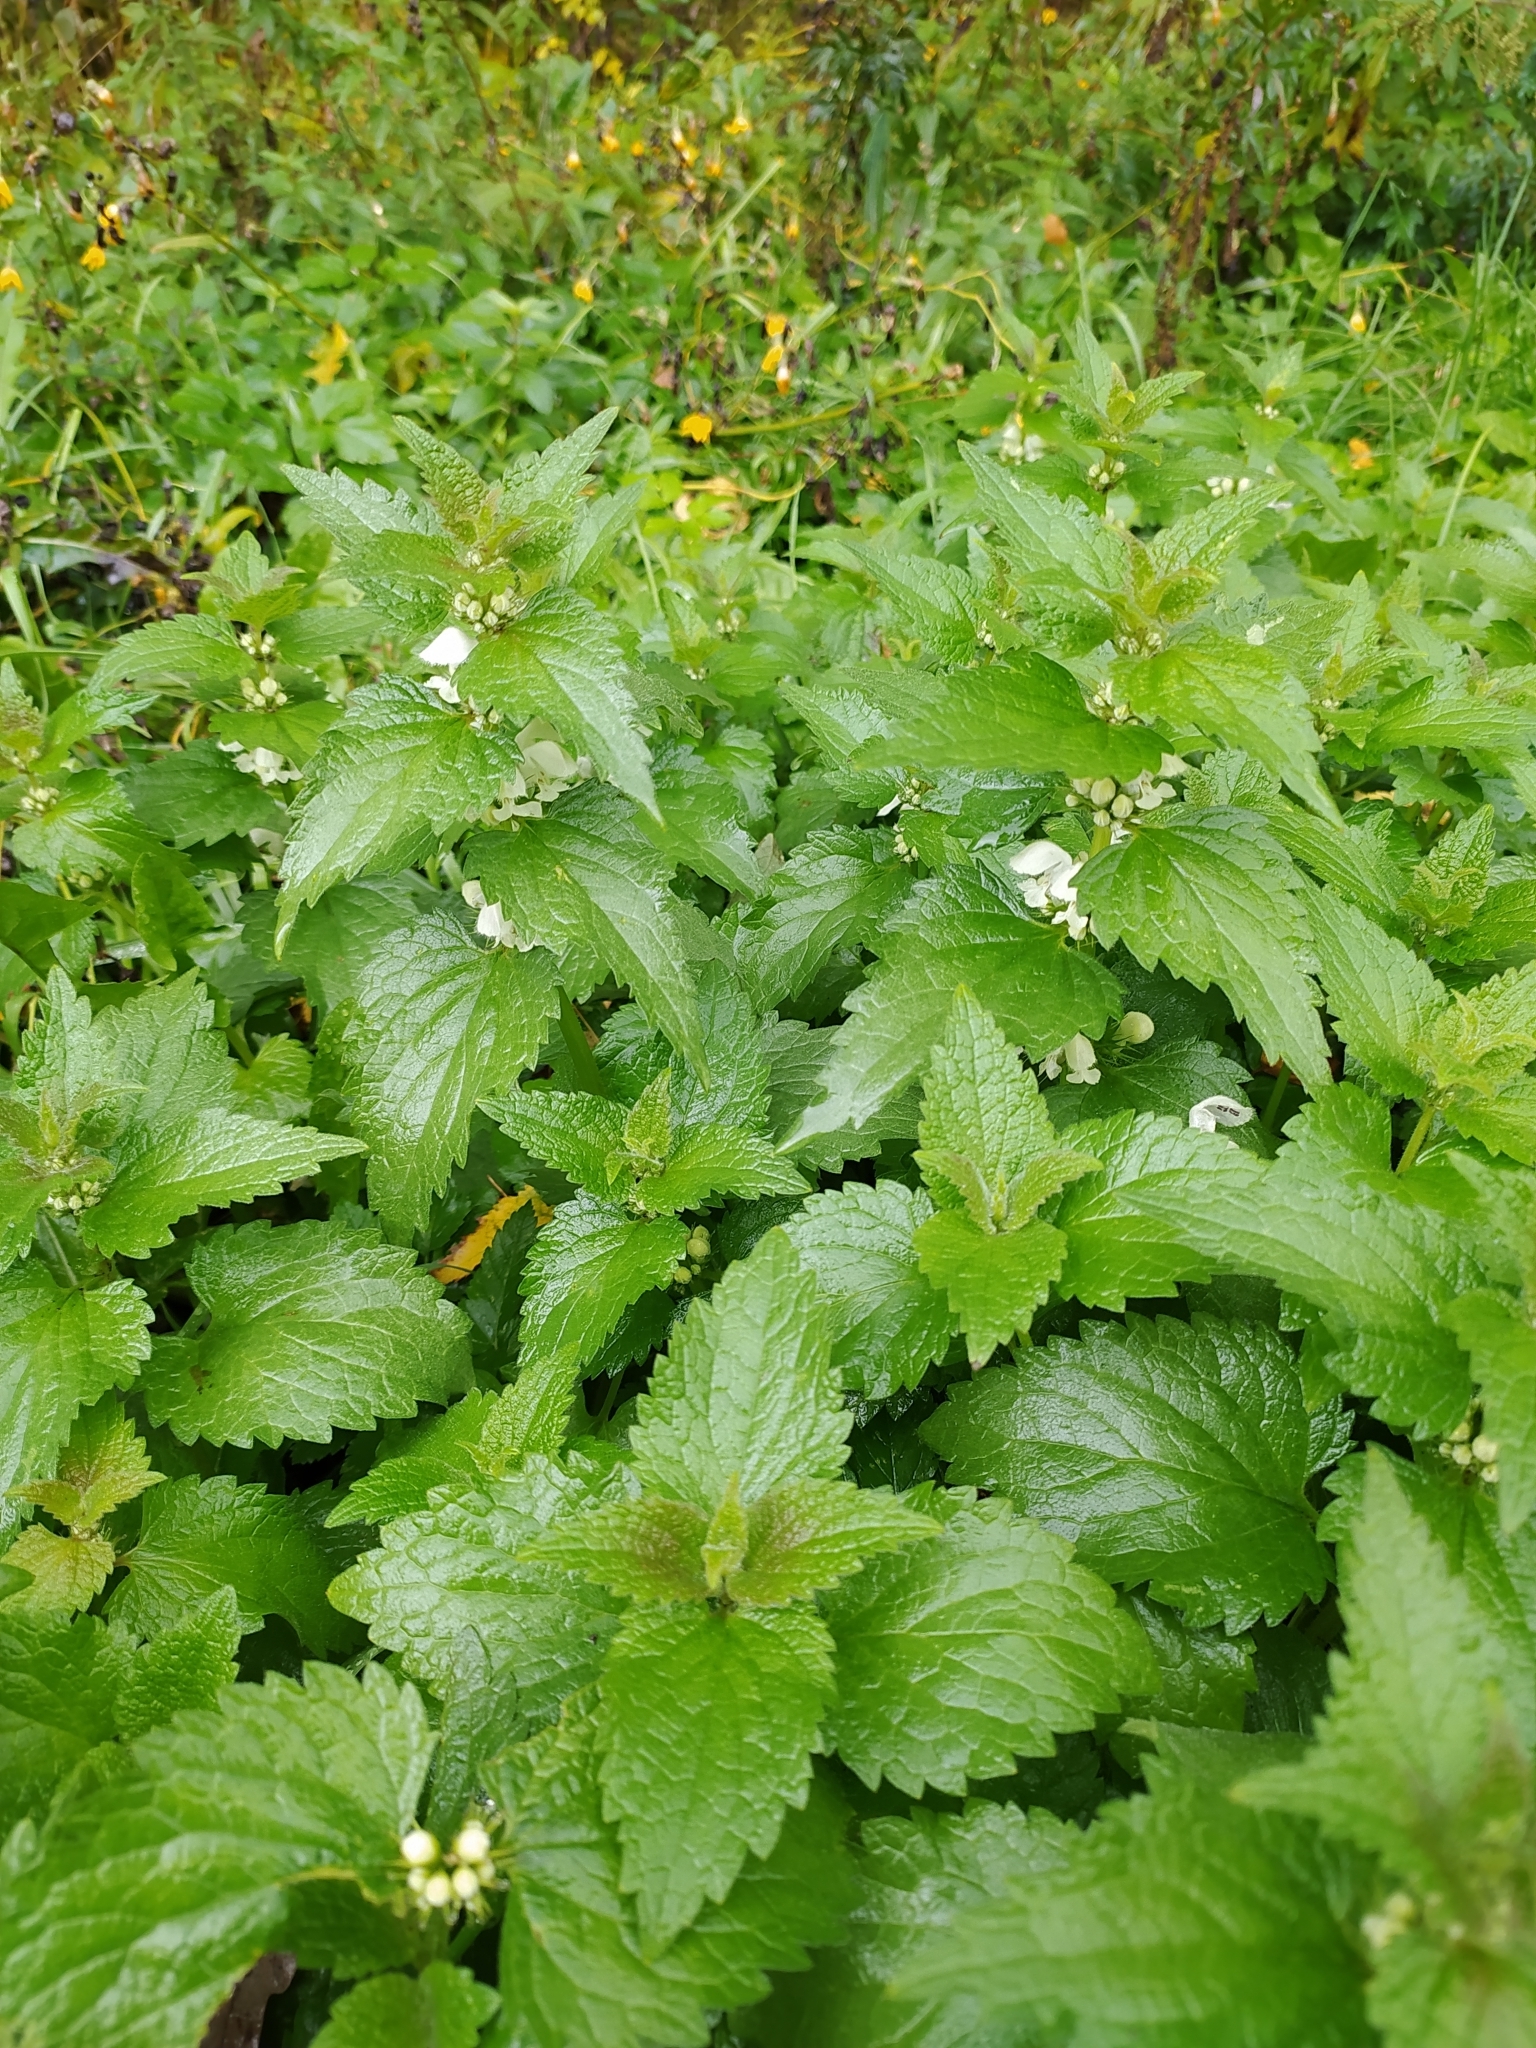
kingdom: Plantae
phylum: Tracheophyta
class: Magnoliopsida
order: Lamiales
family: Lamiaceae
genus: Lamium
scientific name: Lamium album
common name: White dead-nettle
